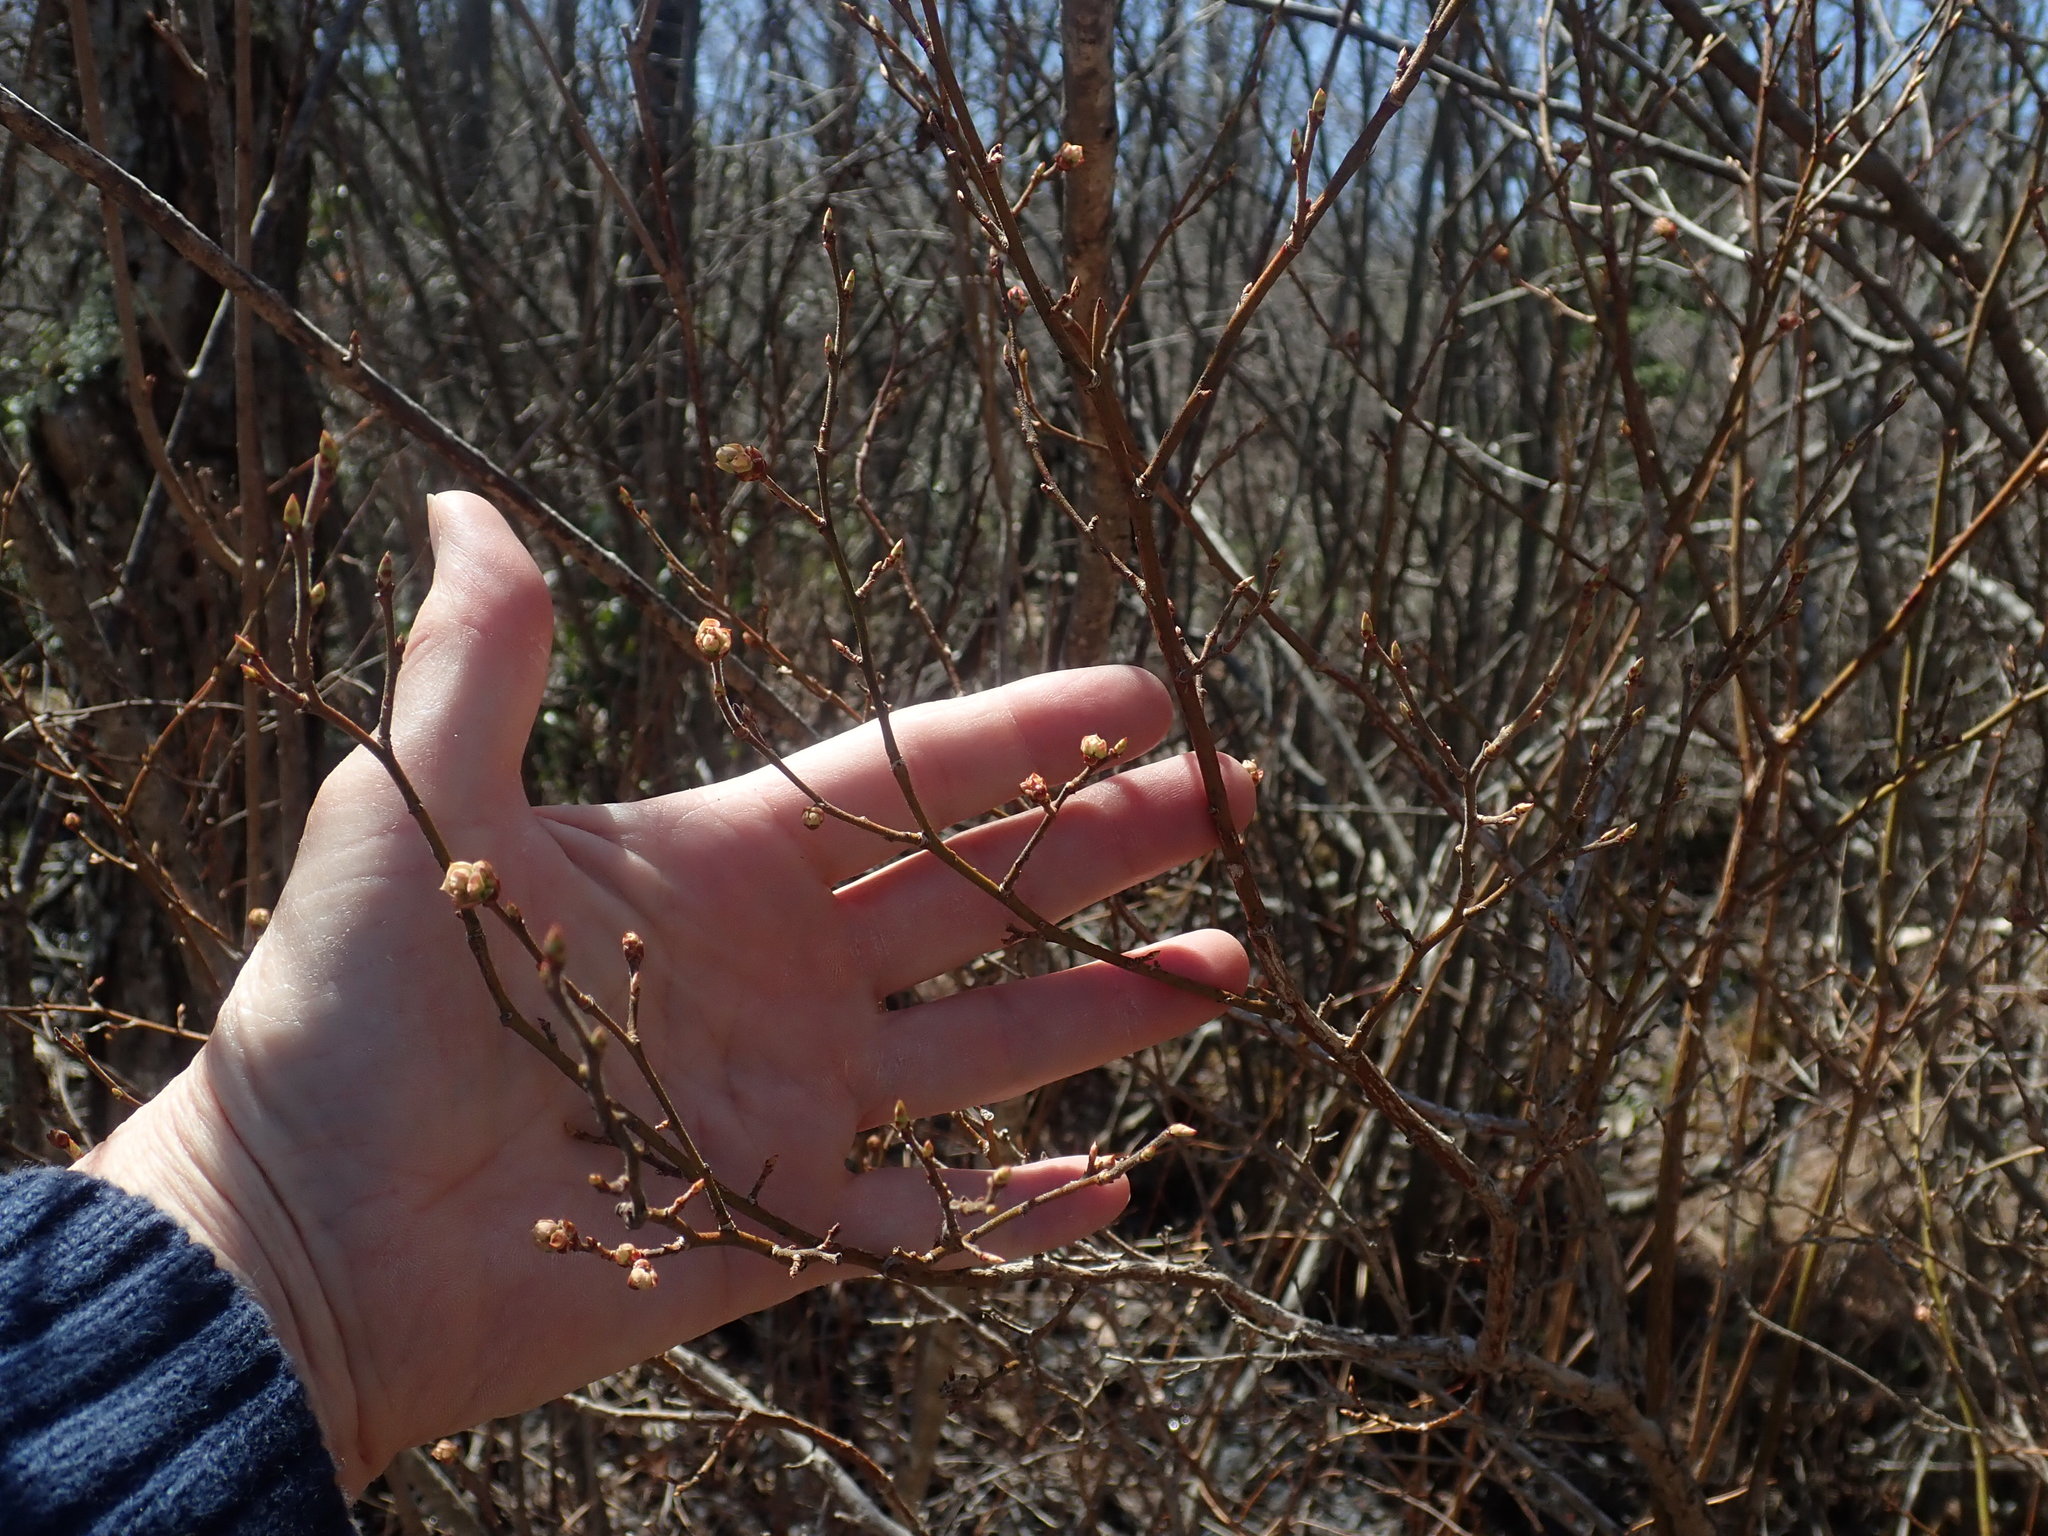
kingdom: Plantae
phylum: Tracheophyta
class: Magnoliopsida
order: Ericales
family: Ericaceae
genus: Vaccinium
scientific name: Vaccinium corymbosum
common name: Blueberry
